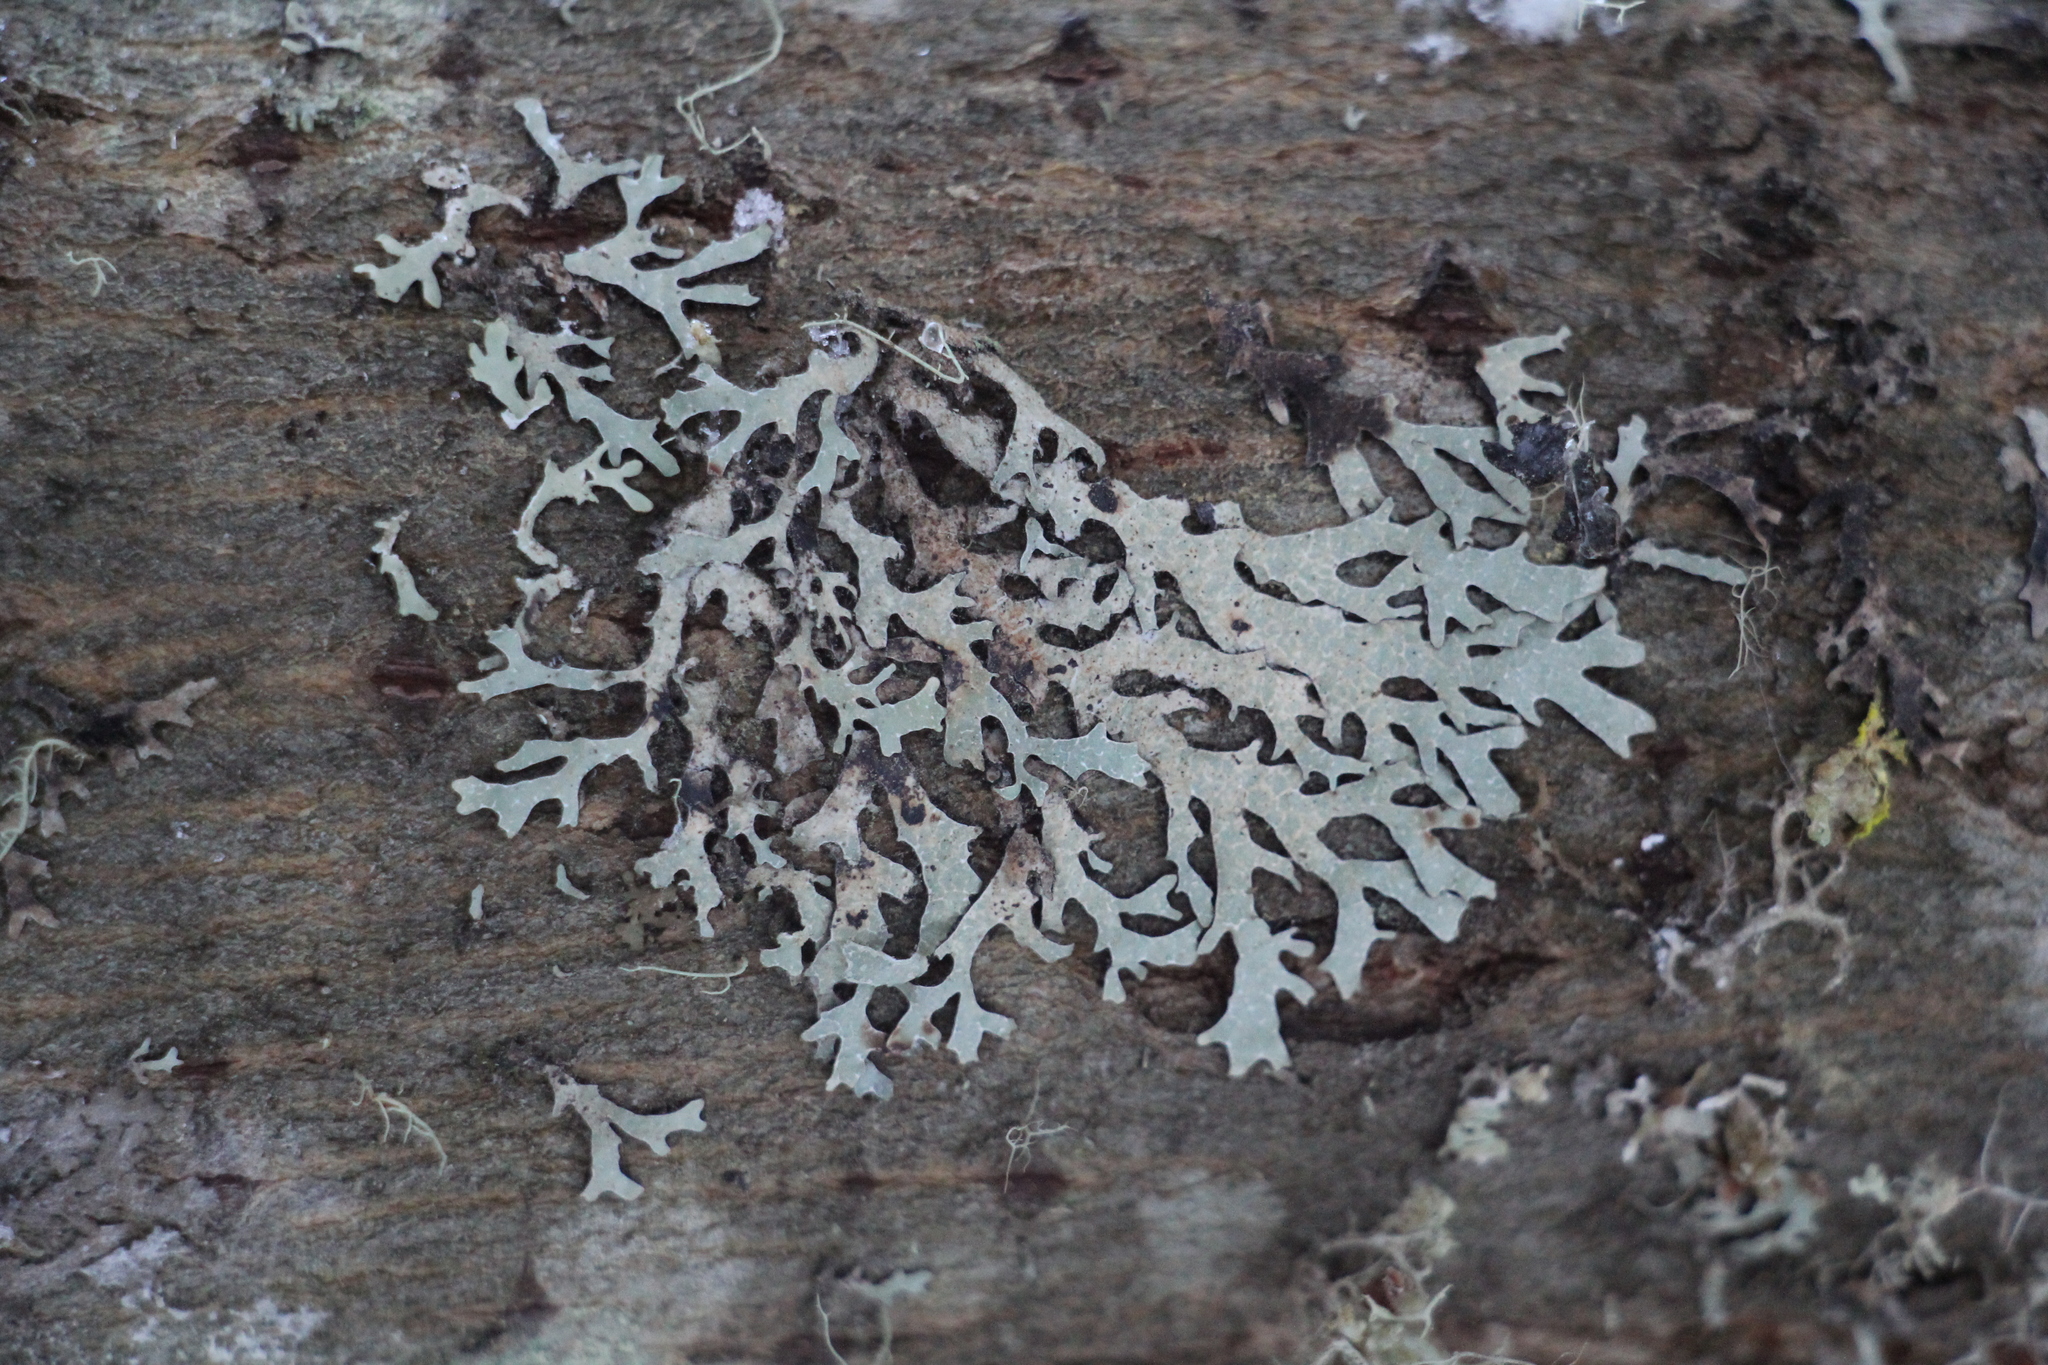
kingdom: Fungi
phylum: Ascomycota
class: Lecanoromycetes
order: Lecanorales
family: Parmeliaceae
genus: Parmelia
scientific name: Parmelia sulcata
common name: Netted shield lichen
